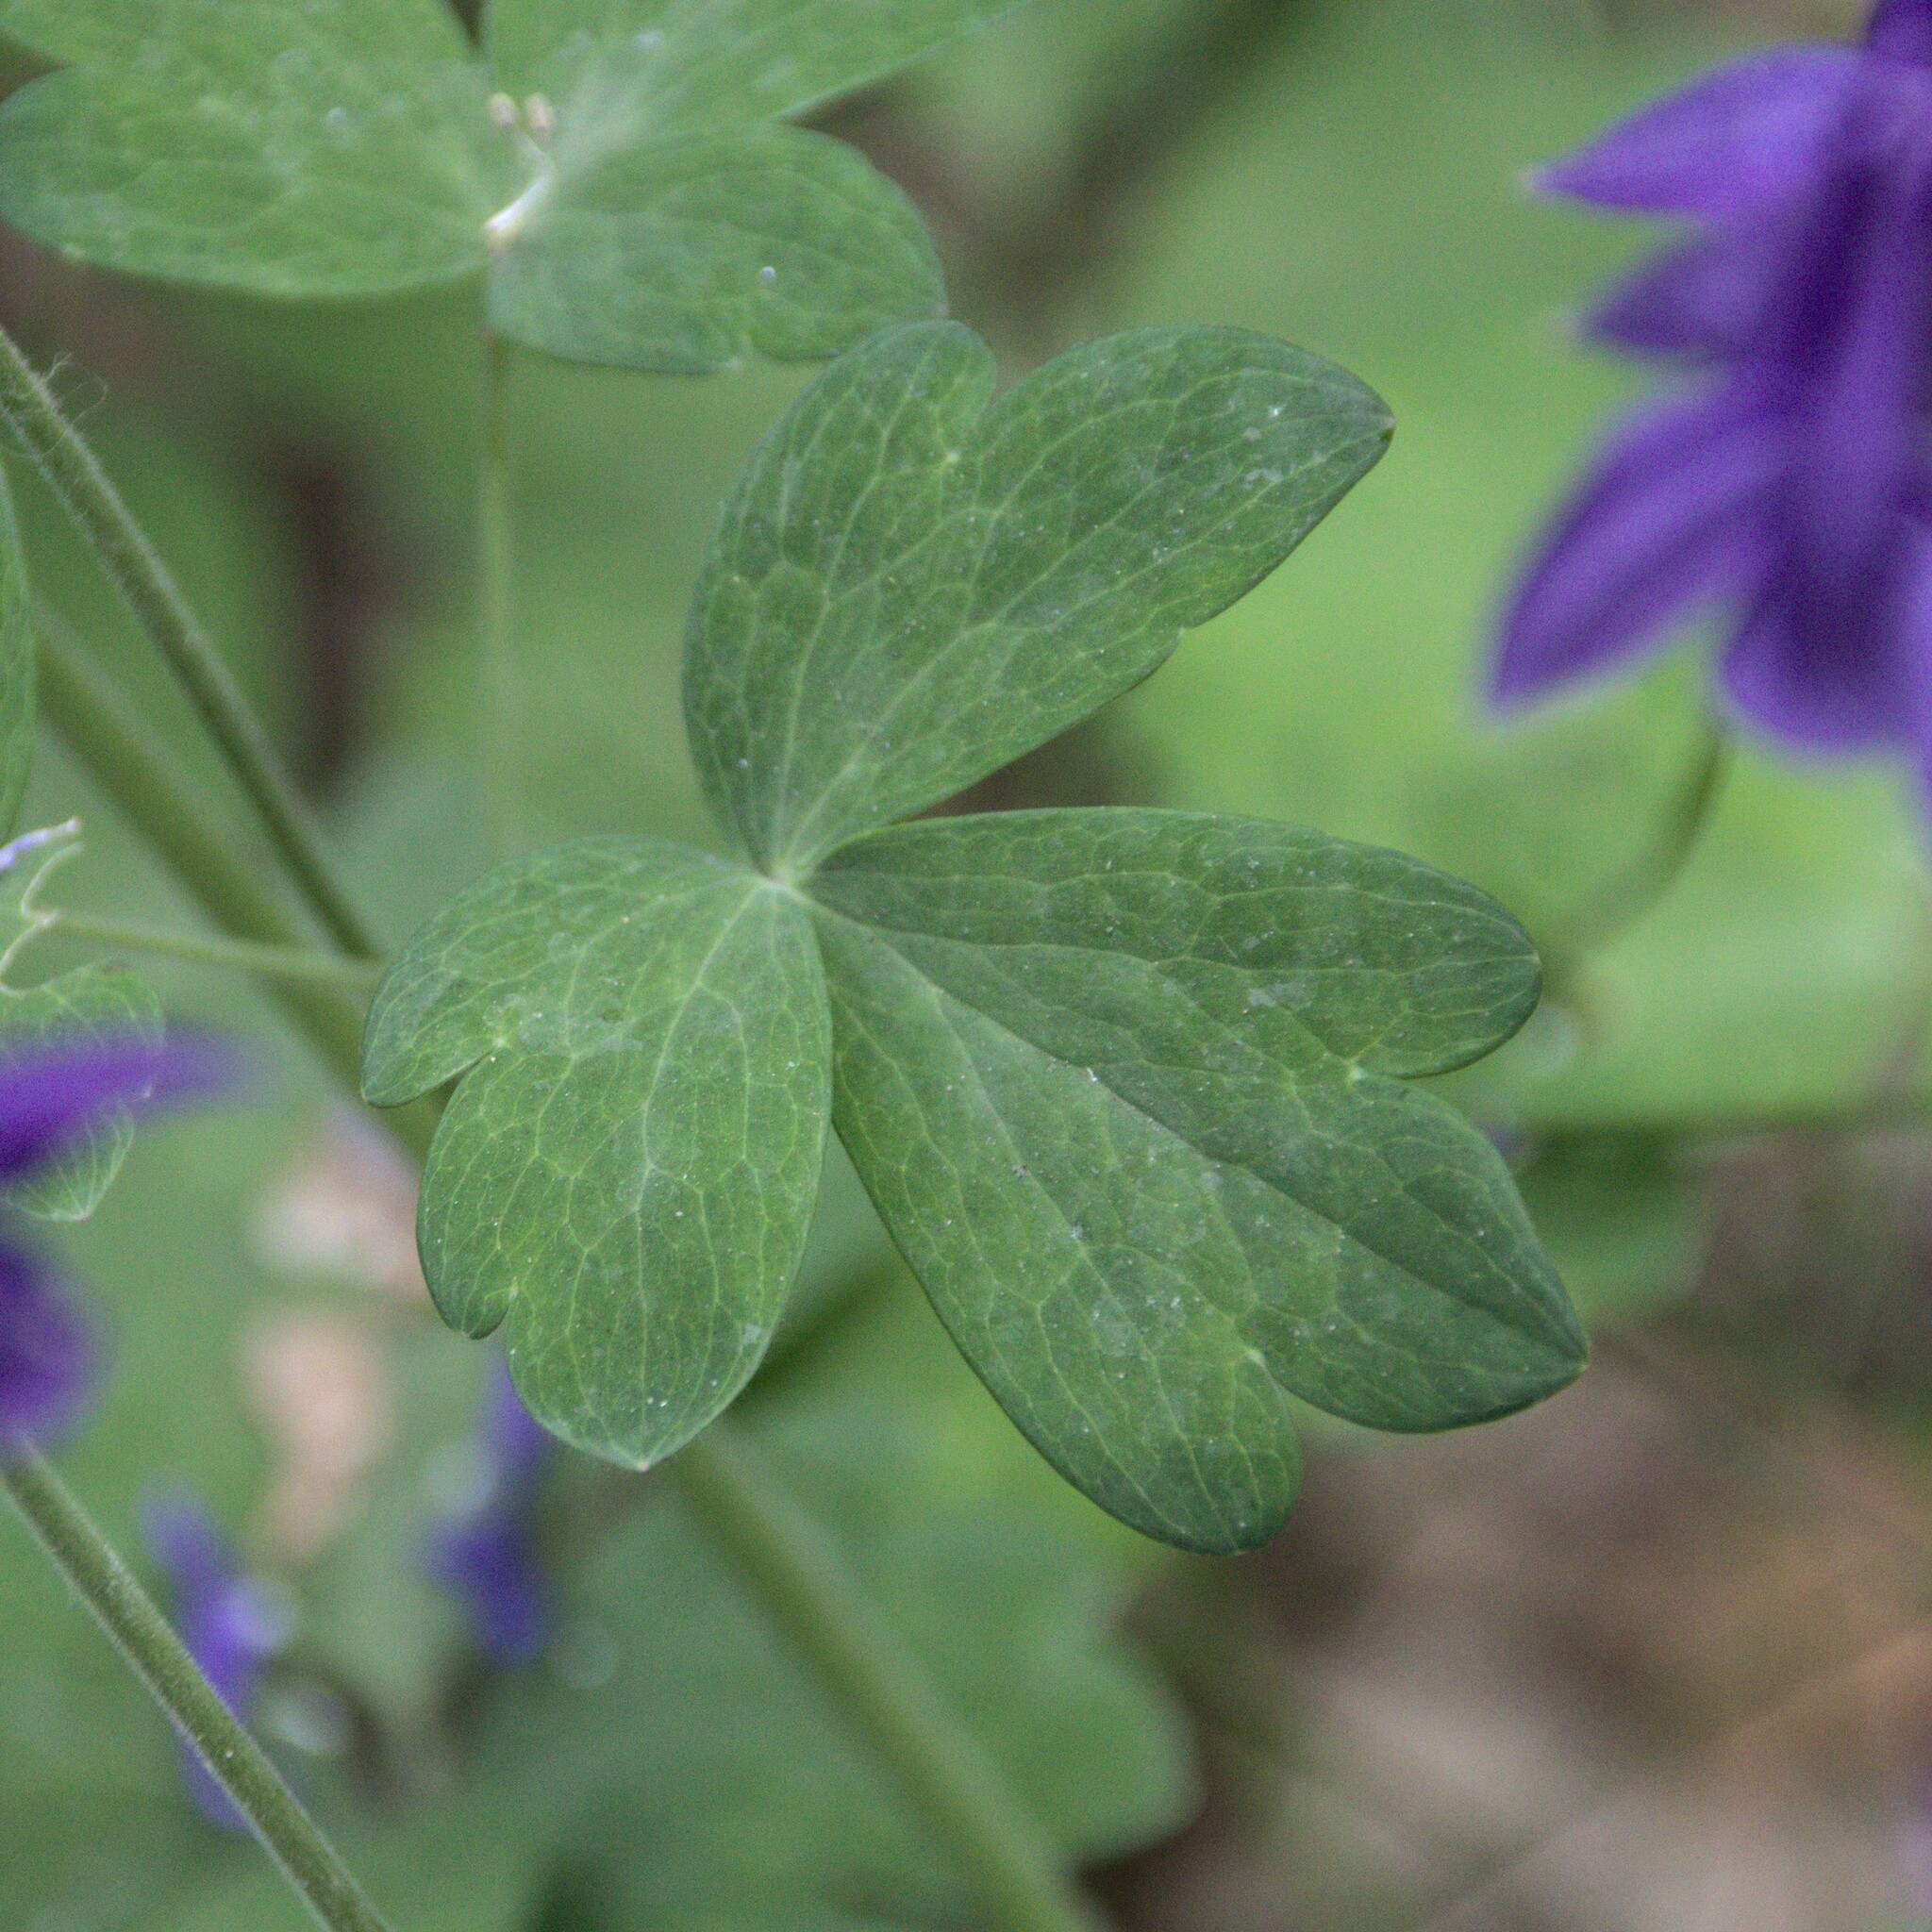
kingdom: Plantae
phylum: Tracheophyta
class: Magnoliopsida
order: Ranunculales
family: Ranunculaceae
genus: Aquilegia
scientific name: Aquilegia vulgaris
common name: Columbine
